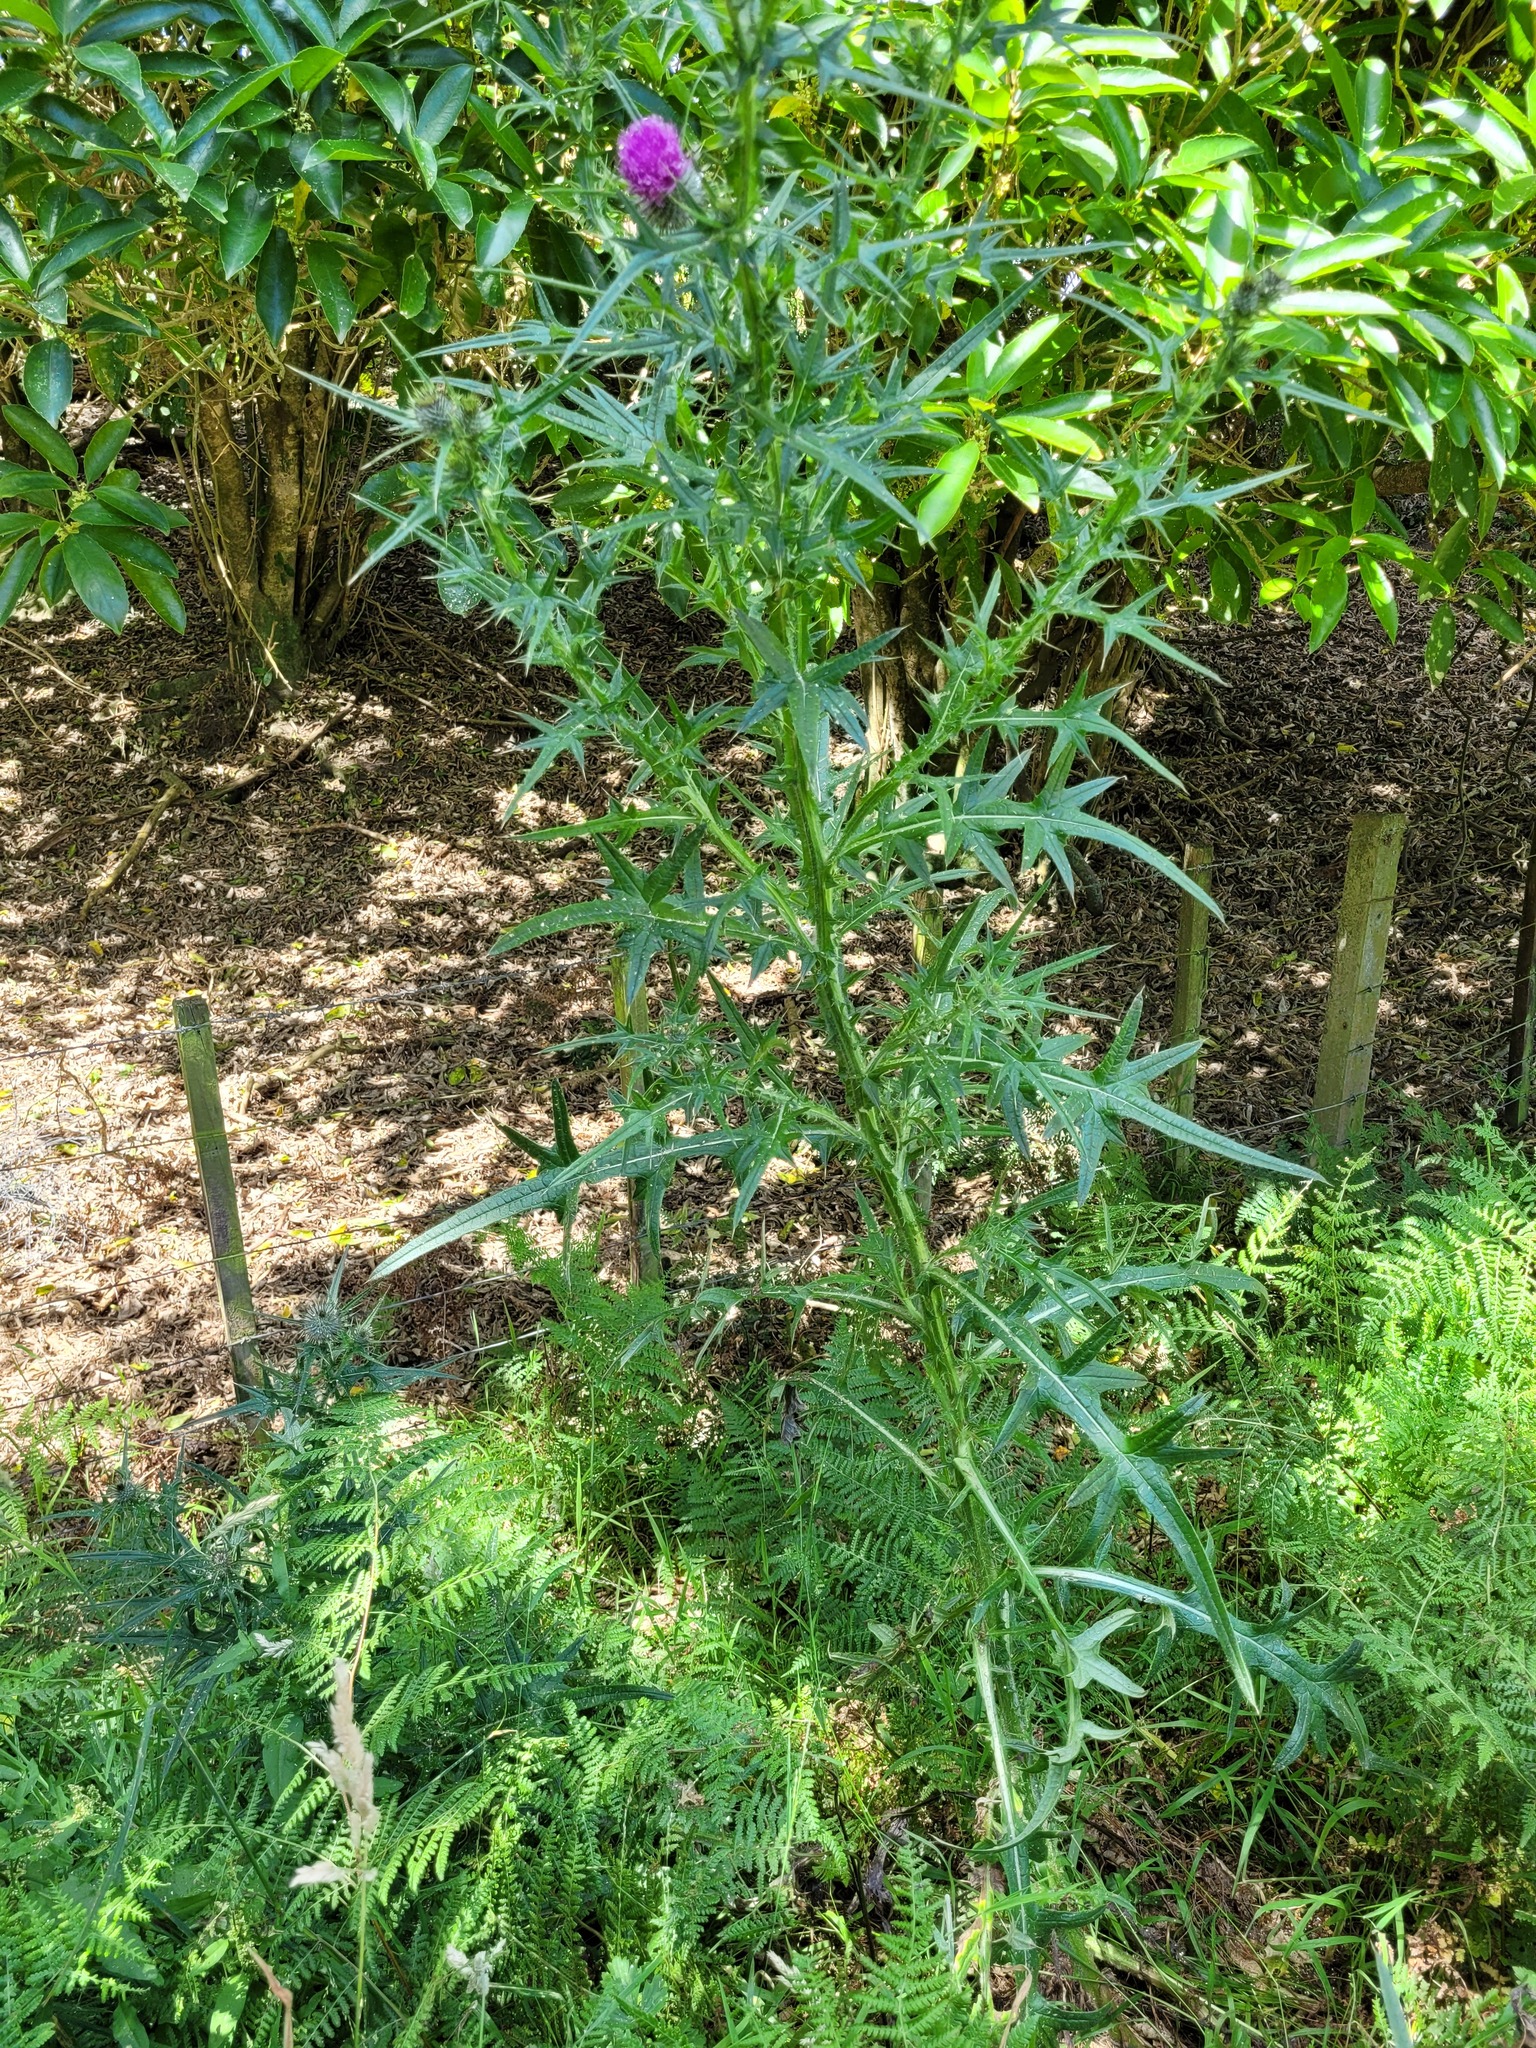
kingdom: Plantae
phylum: Tracheophyta
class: Magnoliopsida
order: Asterales
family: Asteraceae
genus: Cirsium
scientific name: Cirsium vulgare
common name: Bull thistle
